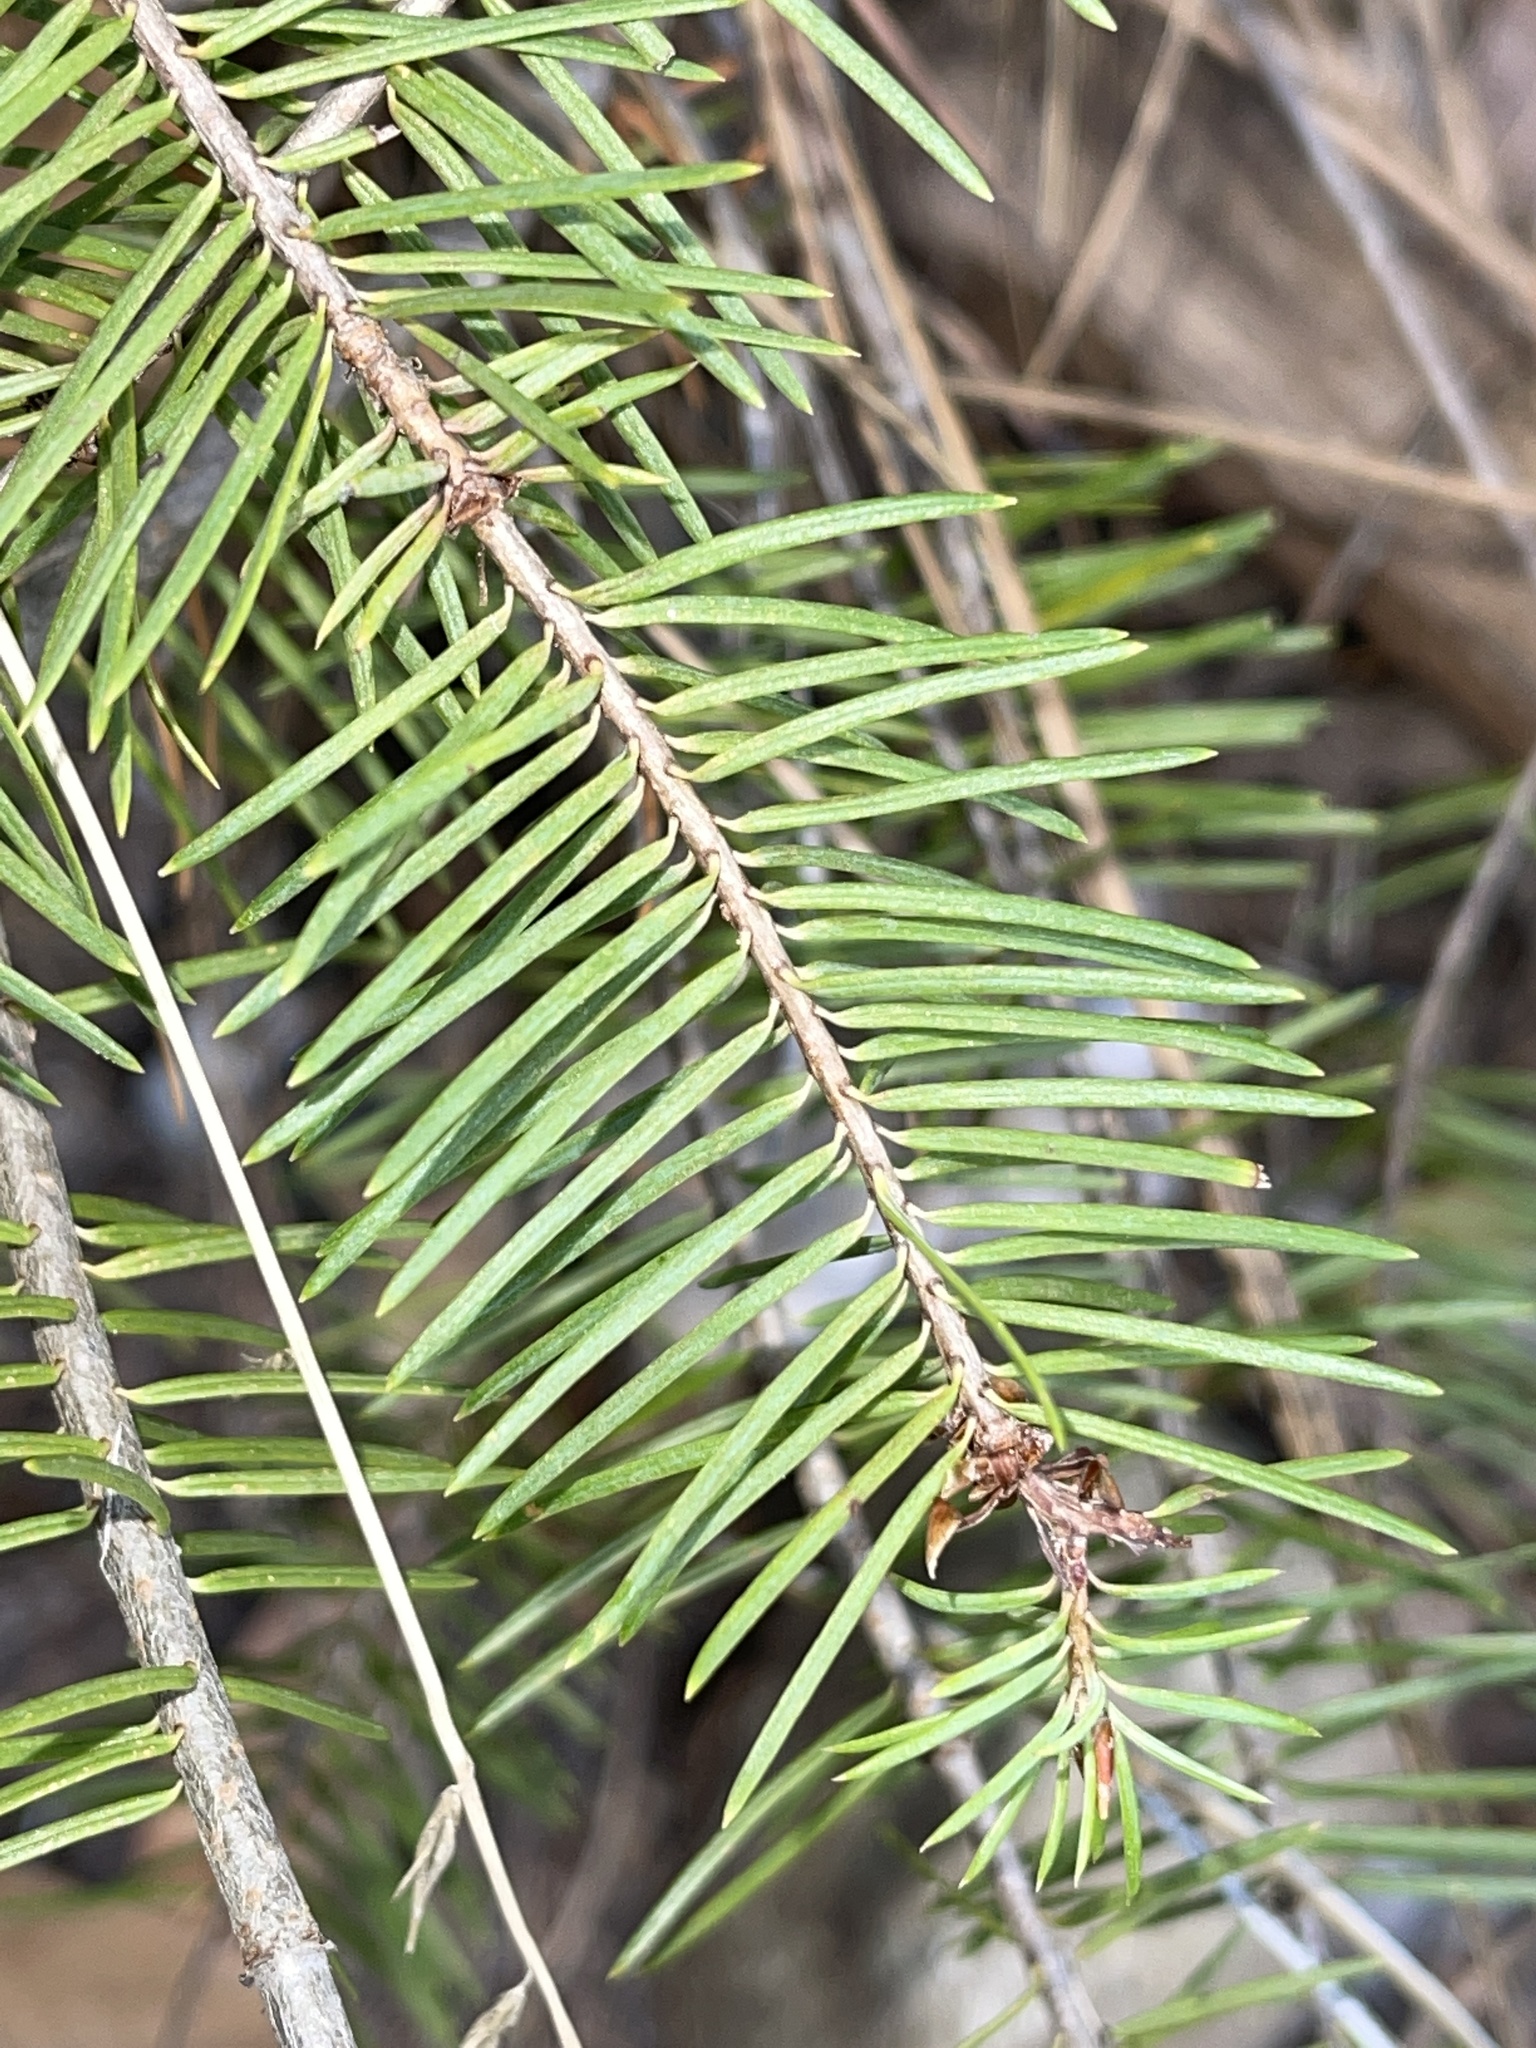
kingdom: Plantae
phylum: Tracheophyta
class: Pinopsida
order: Pinales
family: Pinaceae
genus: Pseudotsuga
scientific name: Pseudotsuga menziesii
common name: Douglas fir
